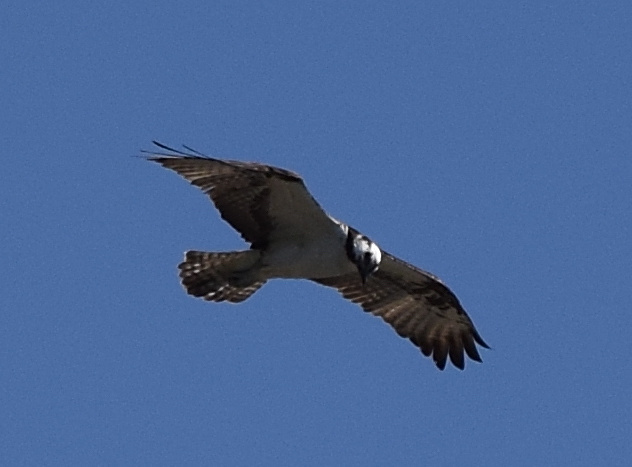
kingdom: Animalia
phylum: Chordata
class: Aves
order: Accipitriformes
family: Pandionidae
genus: Pandion
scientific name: Pandion haliaetus
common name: Osprey
